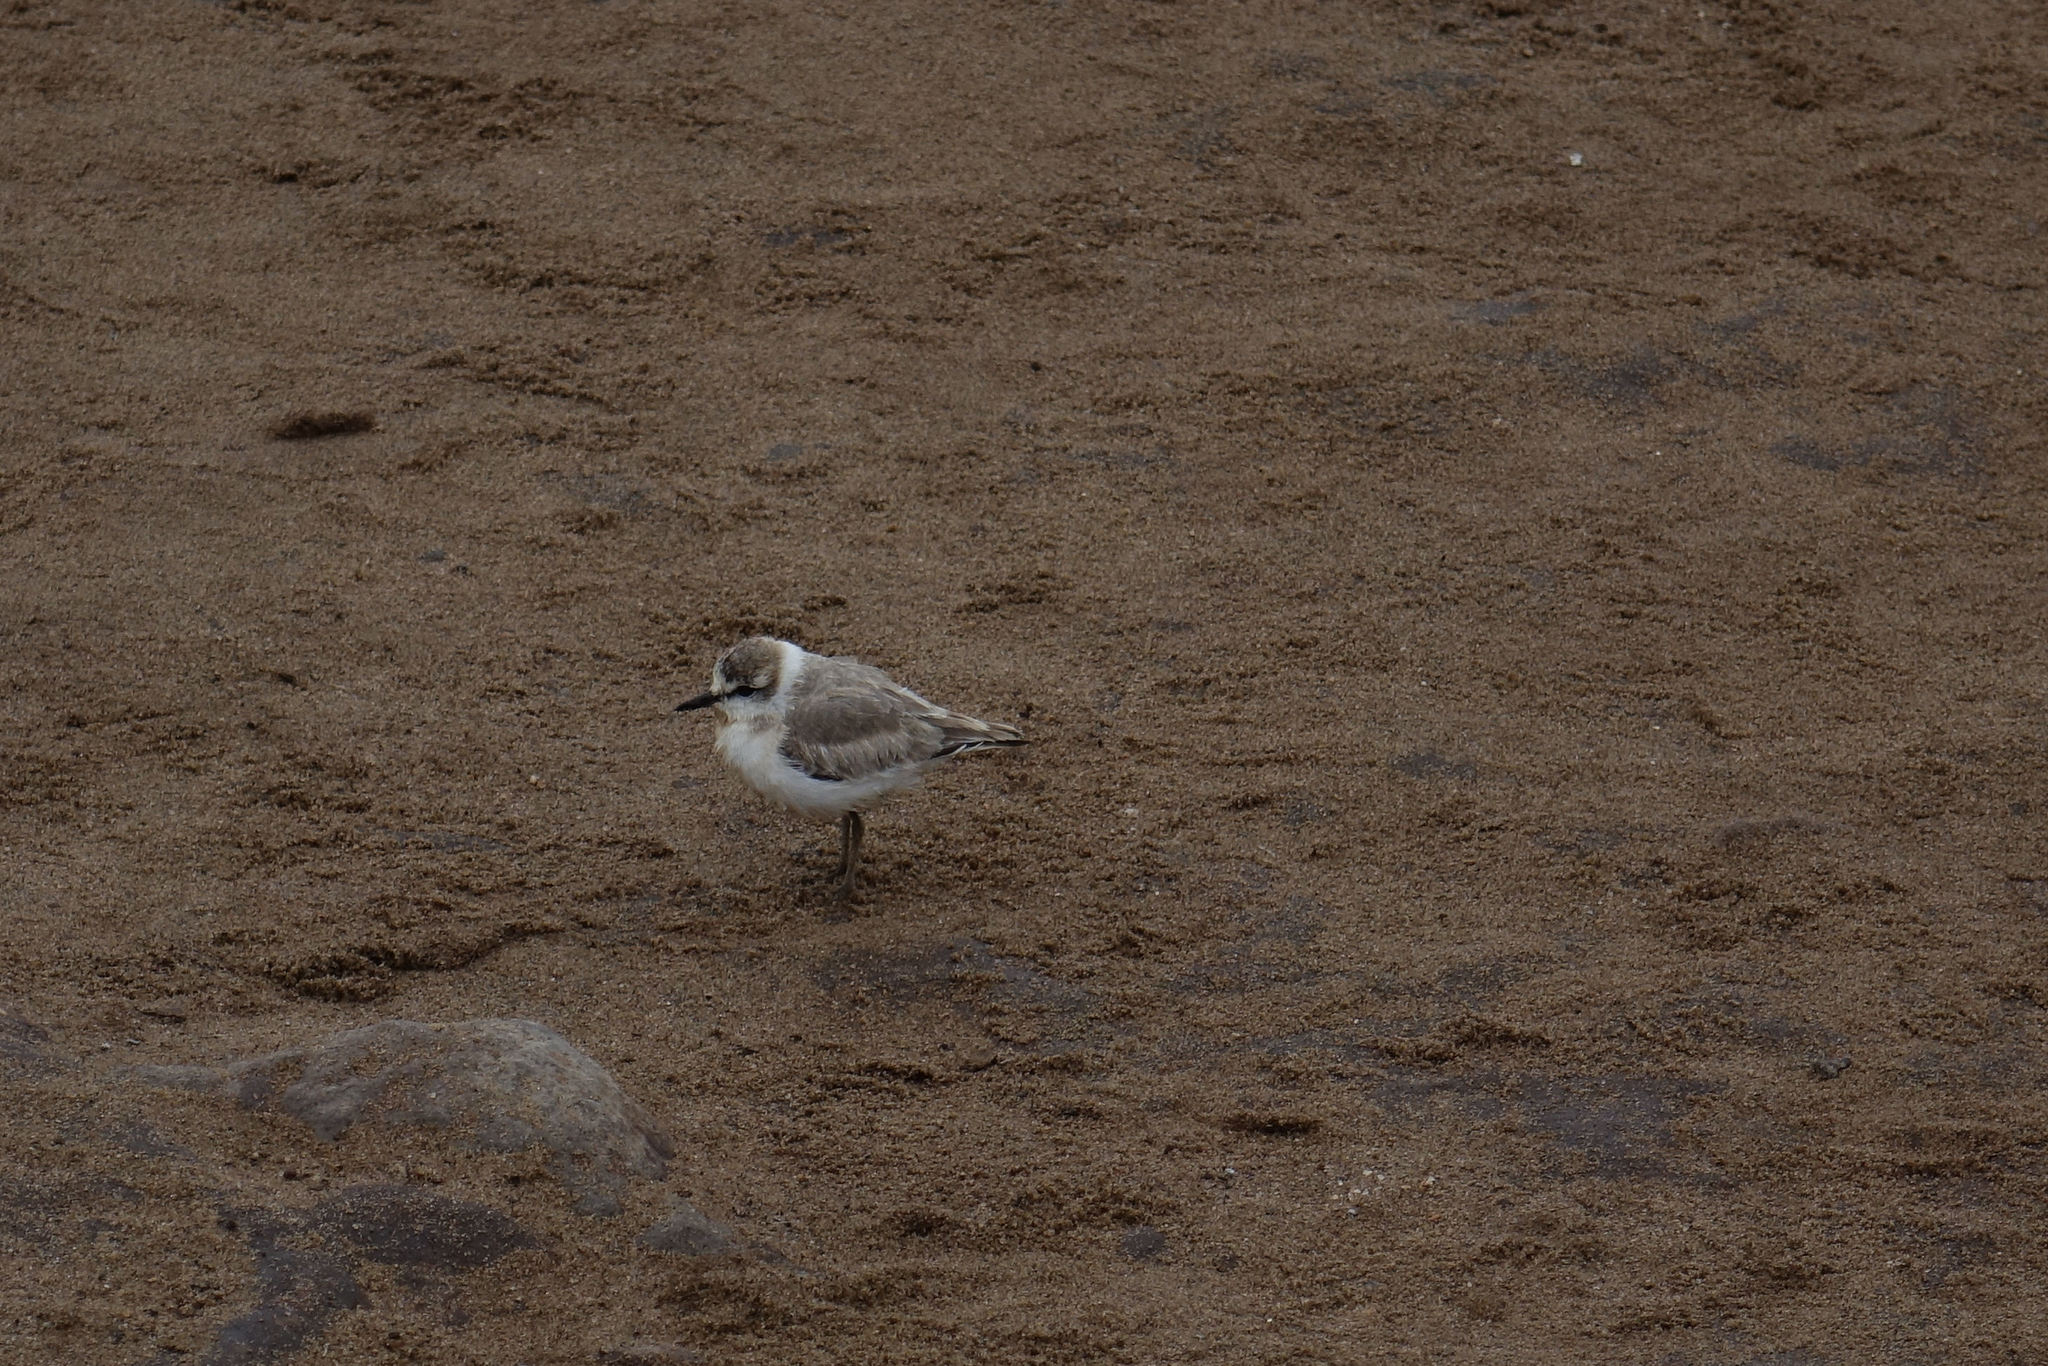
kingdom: Animalia
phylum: Chordata
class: Aves
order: Charadriiformes
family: Charadriidae
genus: Anarhynchus
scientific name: Anarhynchus
